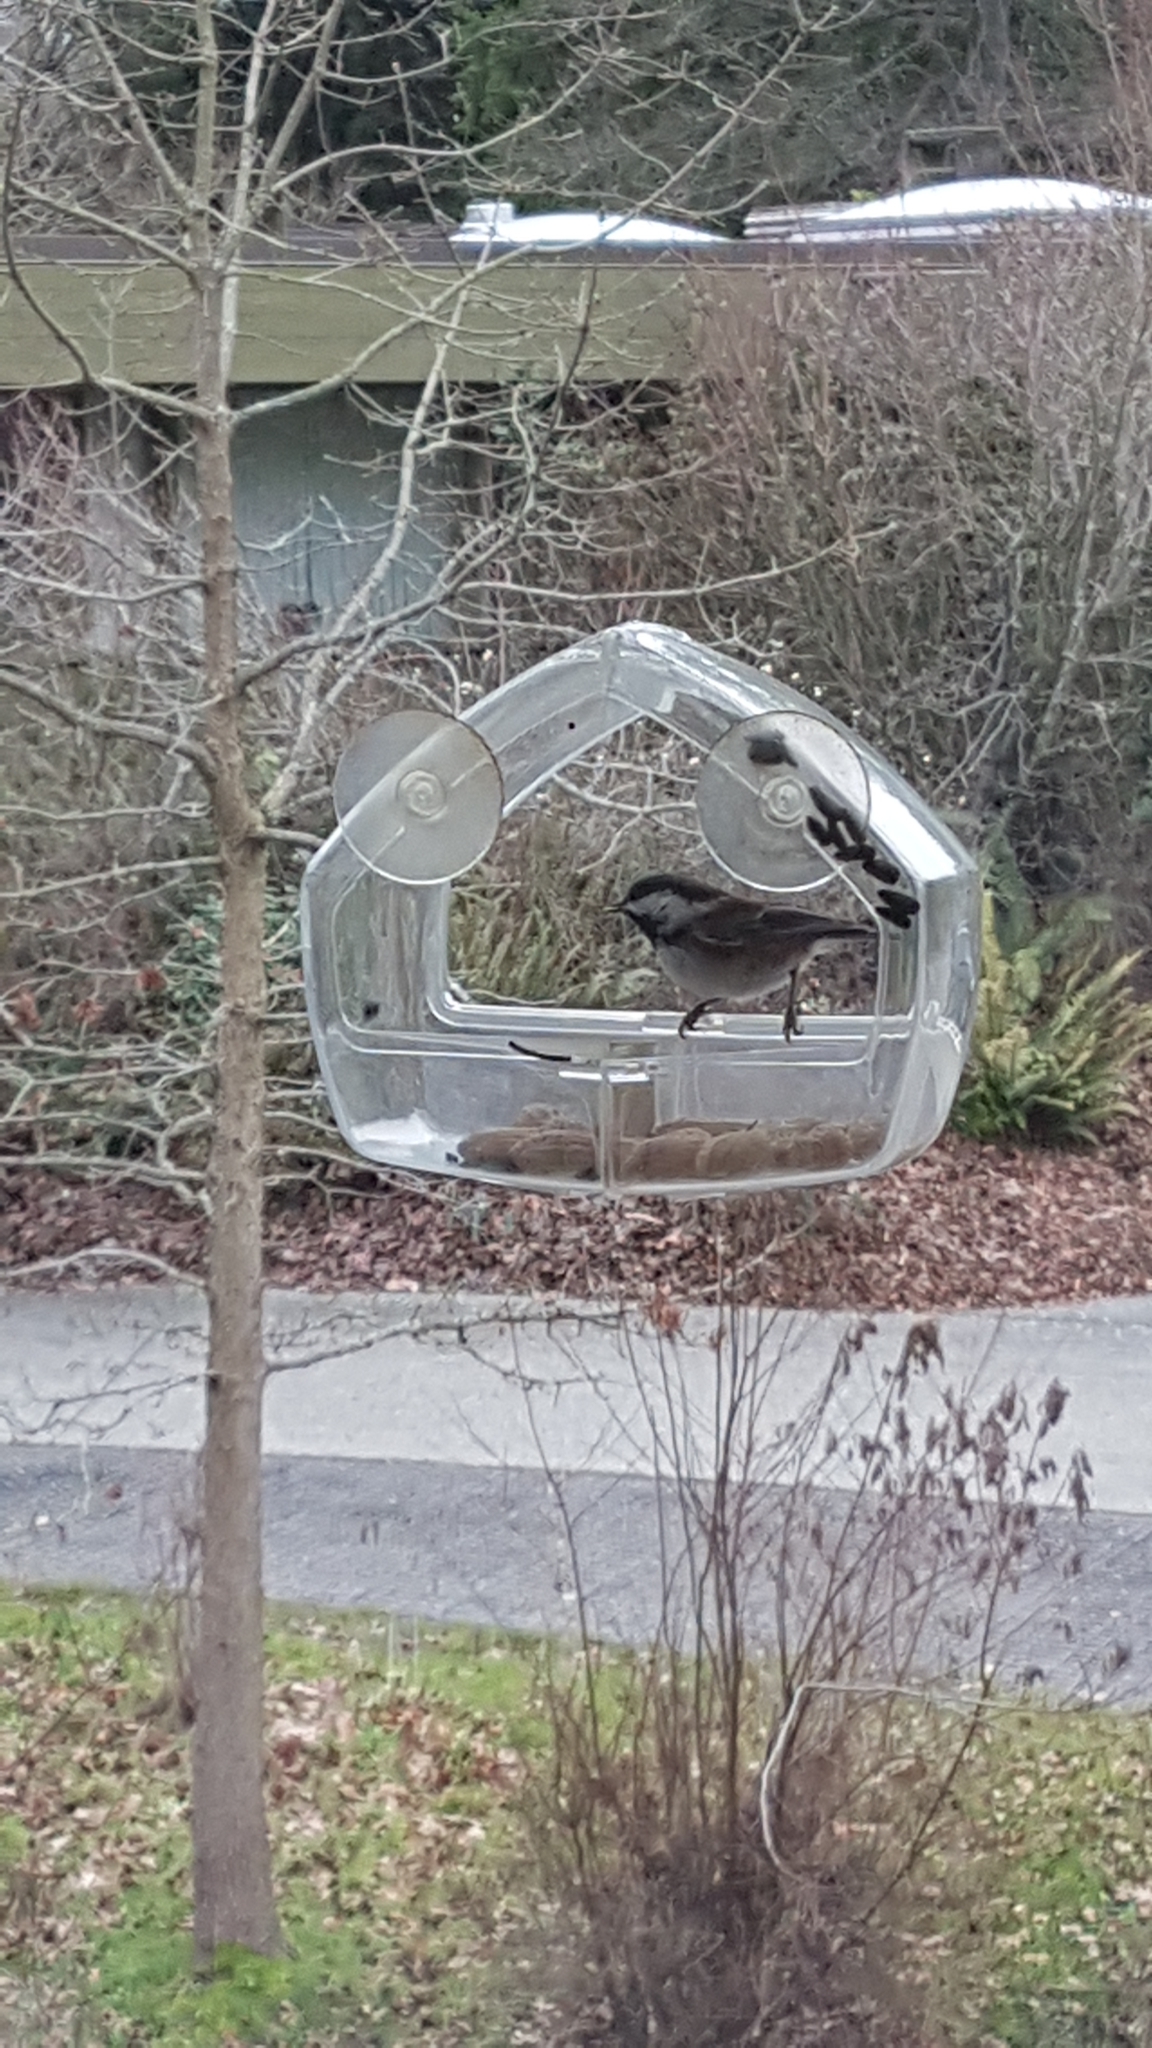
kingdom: Animalia
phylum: Chordata
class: Aves
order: Passeriformes
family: Paridae
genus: Poecile
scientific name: Poecile rufescens
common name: Chestnut-backed chickadee
